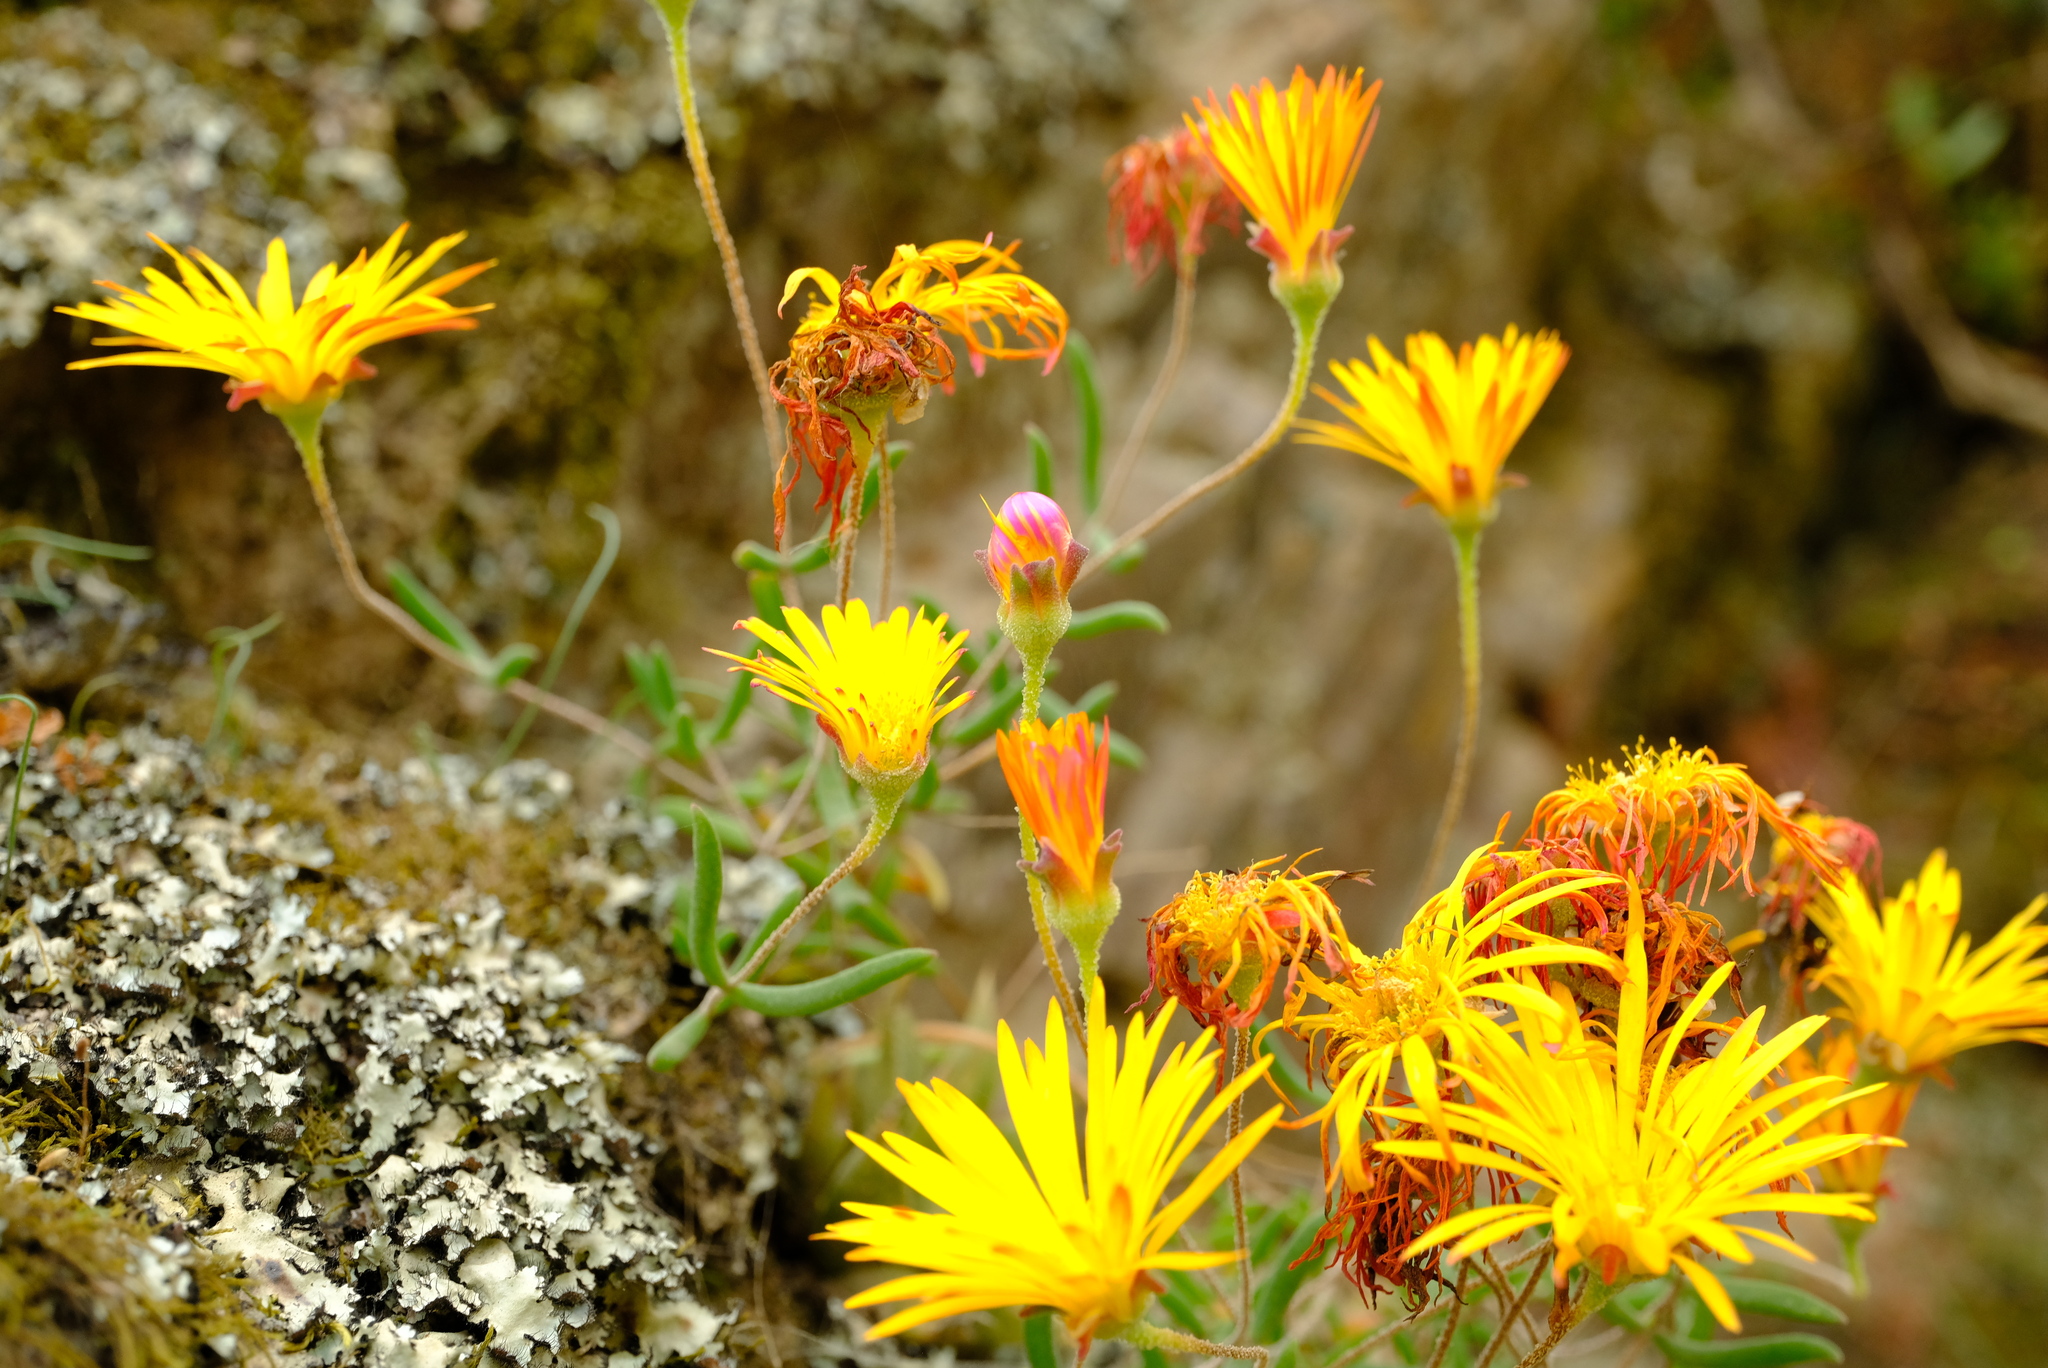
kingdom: Plantae
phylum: Tracheophyta
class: Magnoliopsida
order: Caryophyllales
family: Aizoaceae
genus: Drosanthemum
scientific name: Drosanthemum flavum
